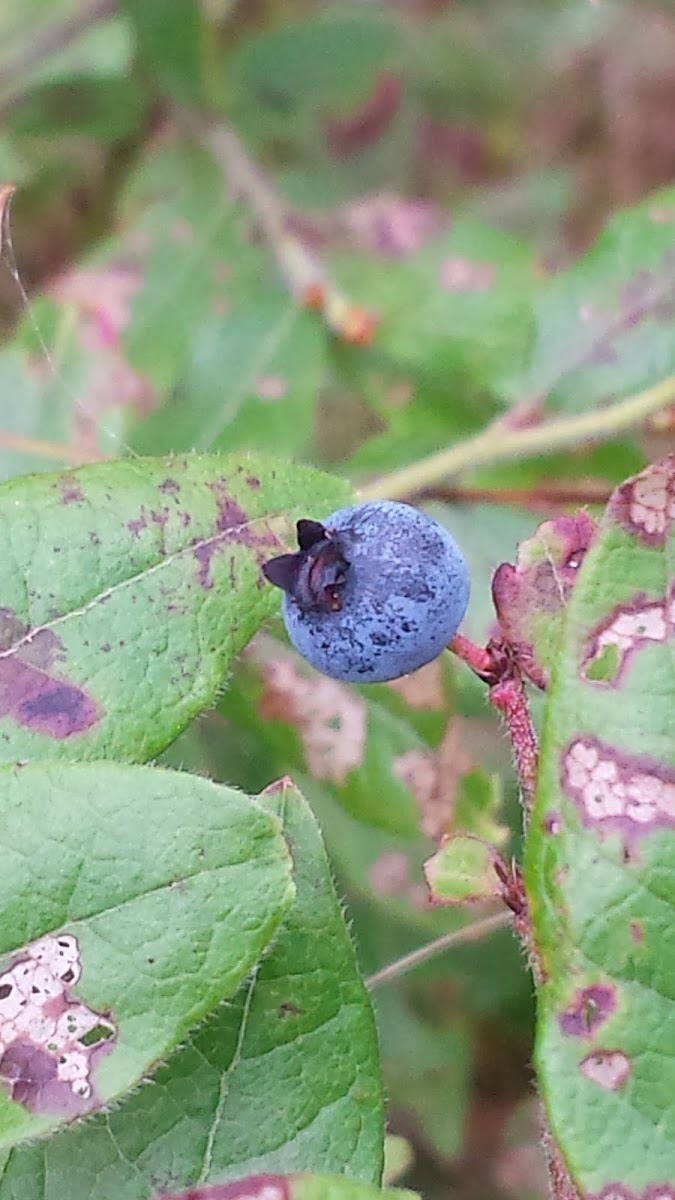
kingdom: Plantae
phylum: Tracheophyta
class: Magnoliopsida
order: Ericales
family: Ericaceae
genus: Vaccinium
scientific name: Vaccinium myrtilloides
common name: Canada blueberry
